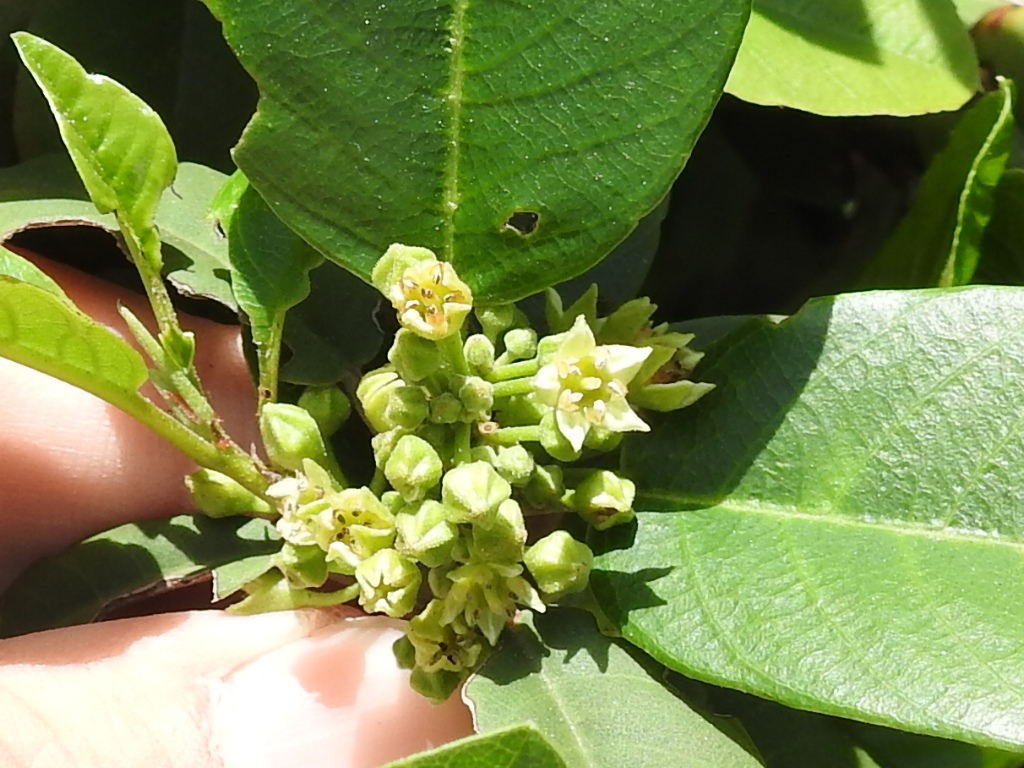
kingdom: Plantae
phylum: Tracheophyta
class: Magnoliopsida
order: Rosales
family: Rhamnaceae
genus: Frangula
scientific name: Frangula californica
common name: California buckthorn
